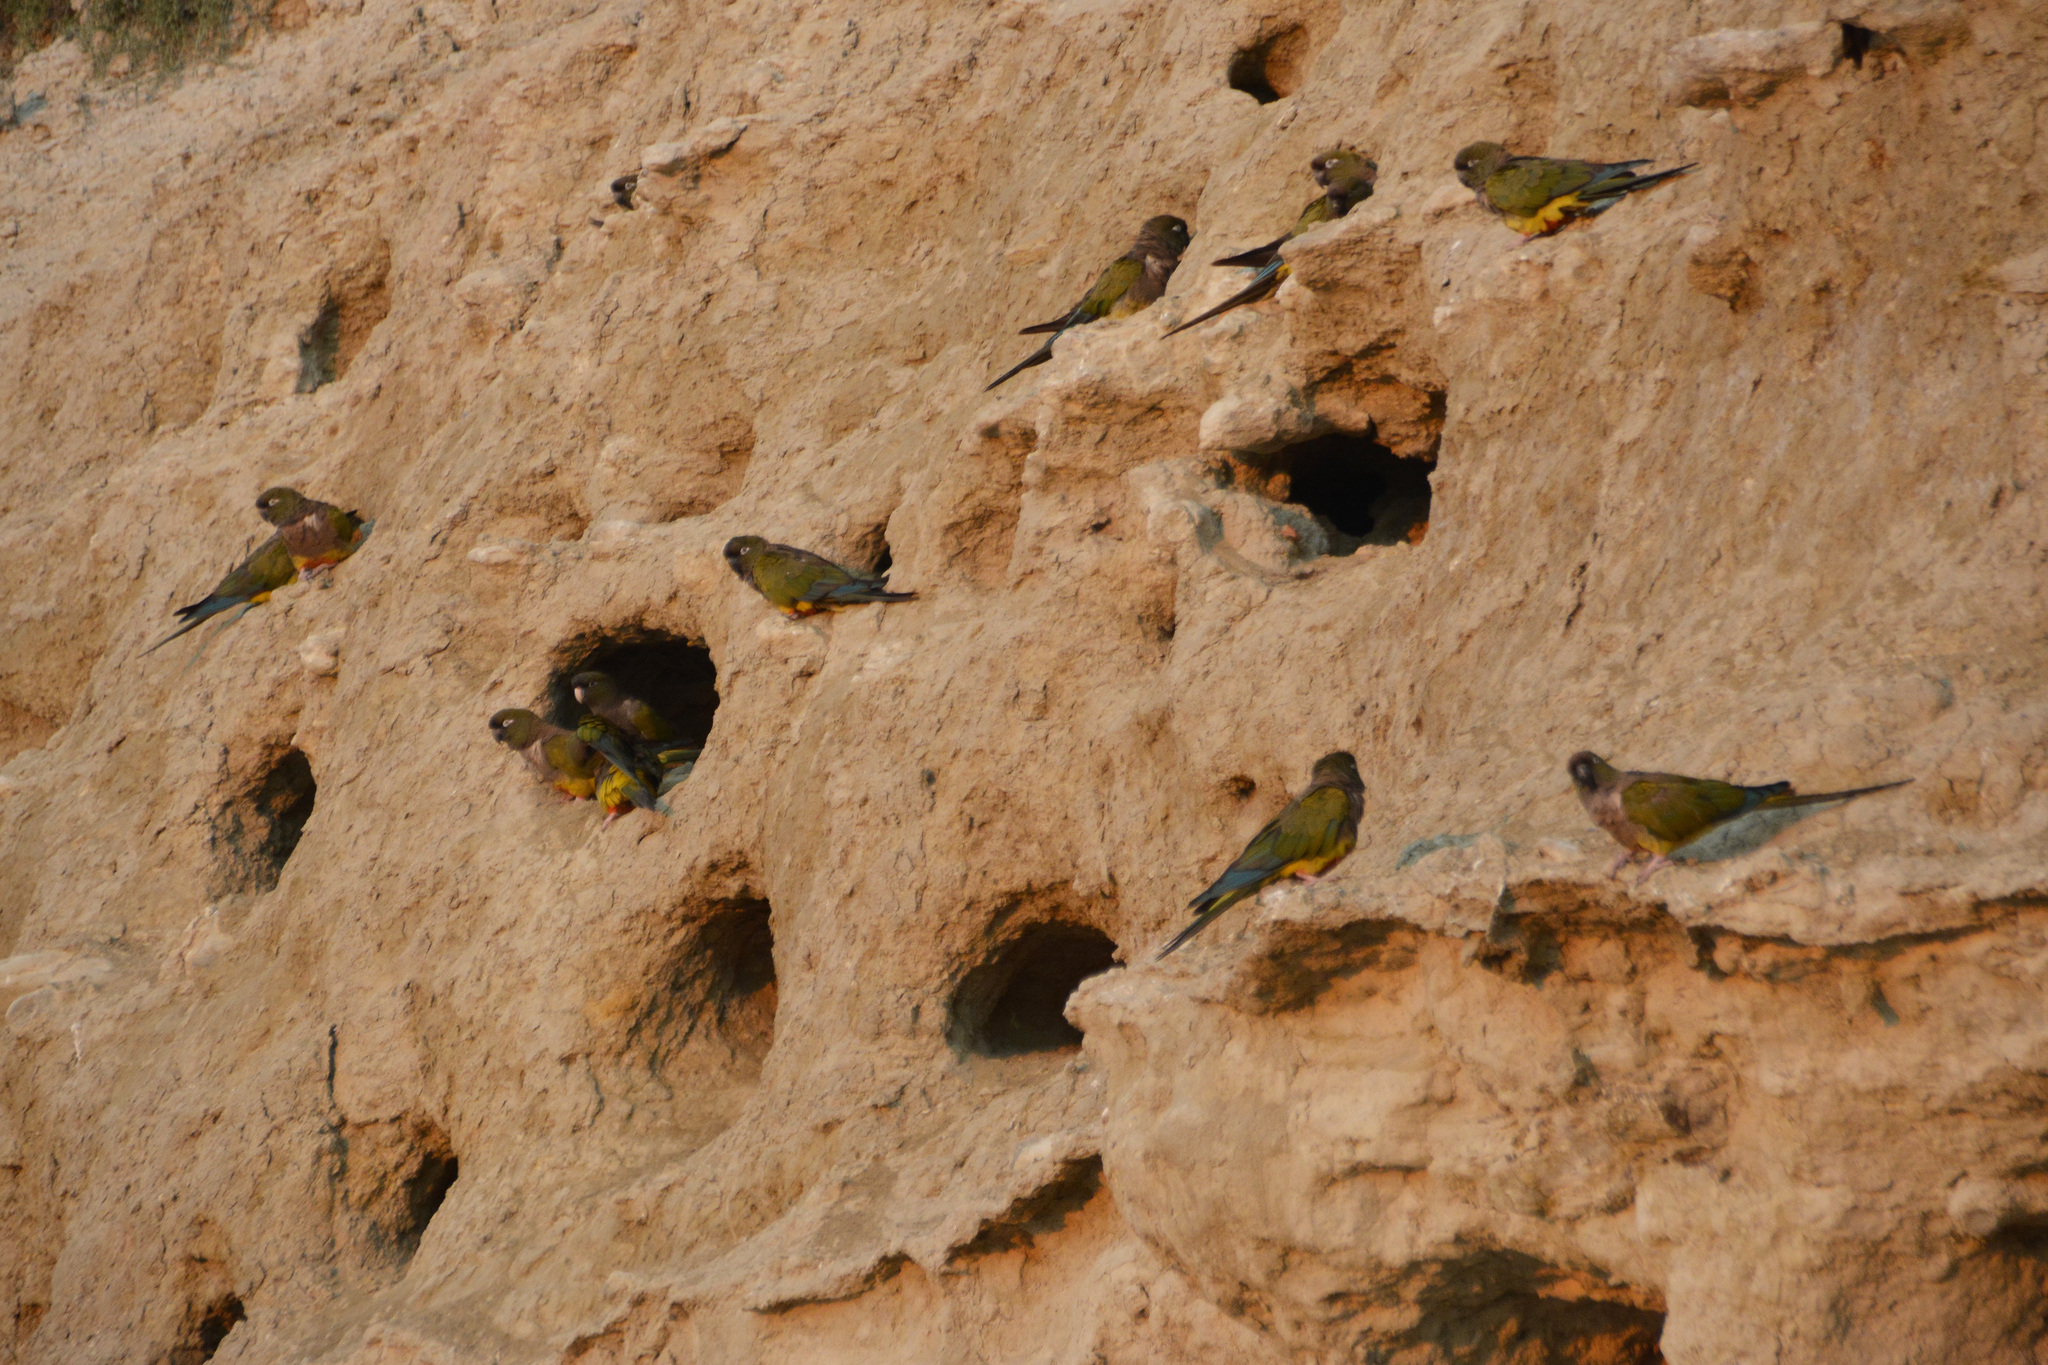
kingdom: Animalia
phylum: Chordata
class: Aves
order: Psittaciformes
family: Psittacidae
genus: Cyanoliseus
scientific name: Cyanoliseus patagonus
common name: Burrowing parrot
